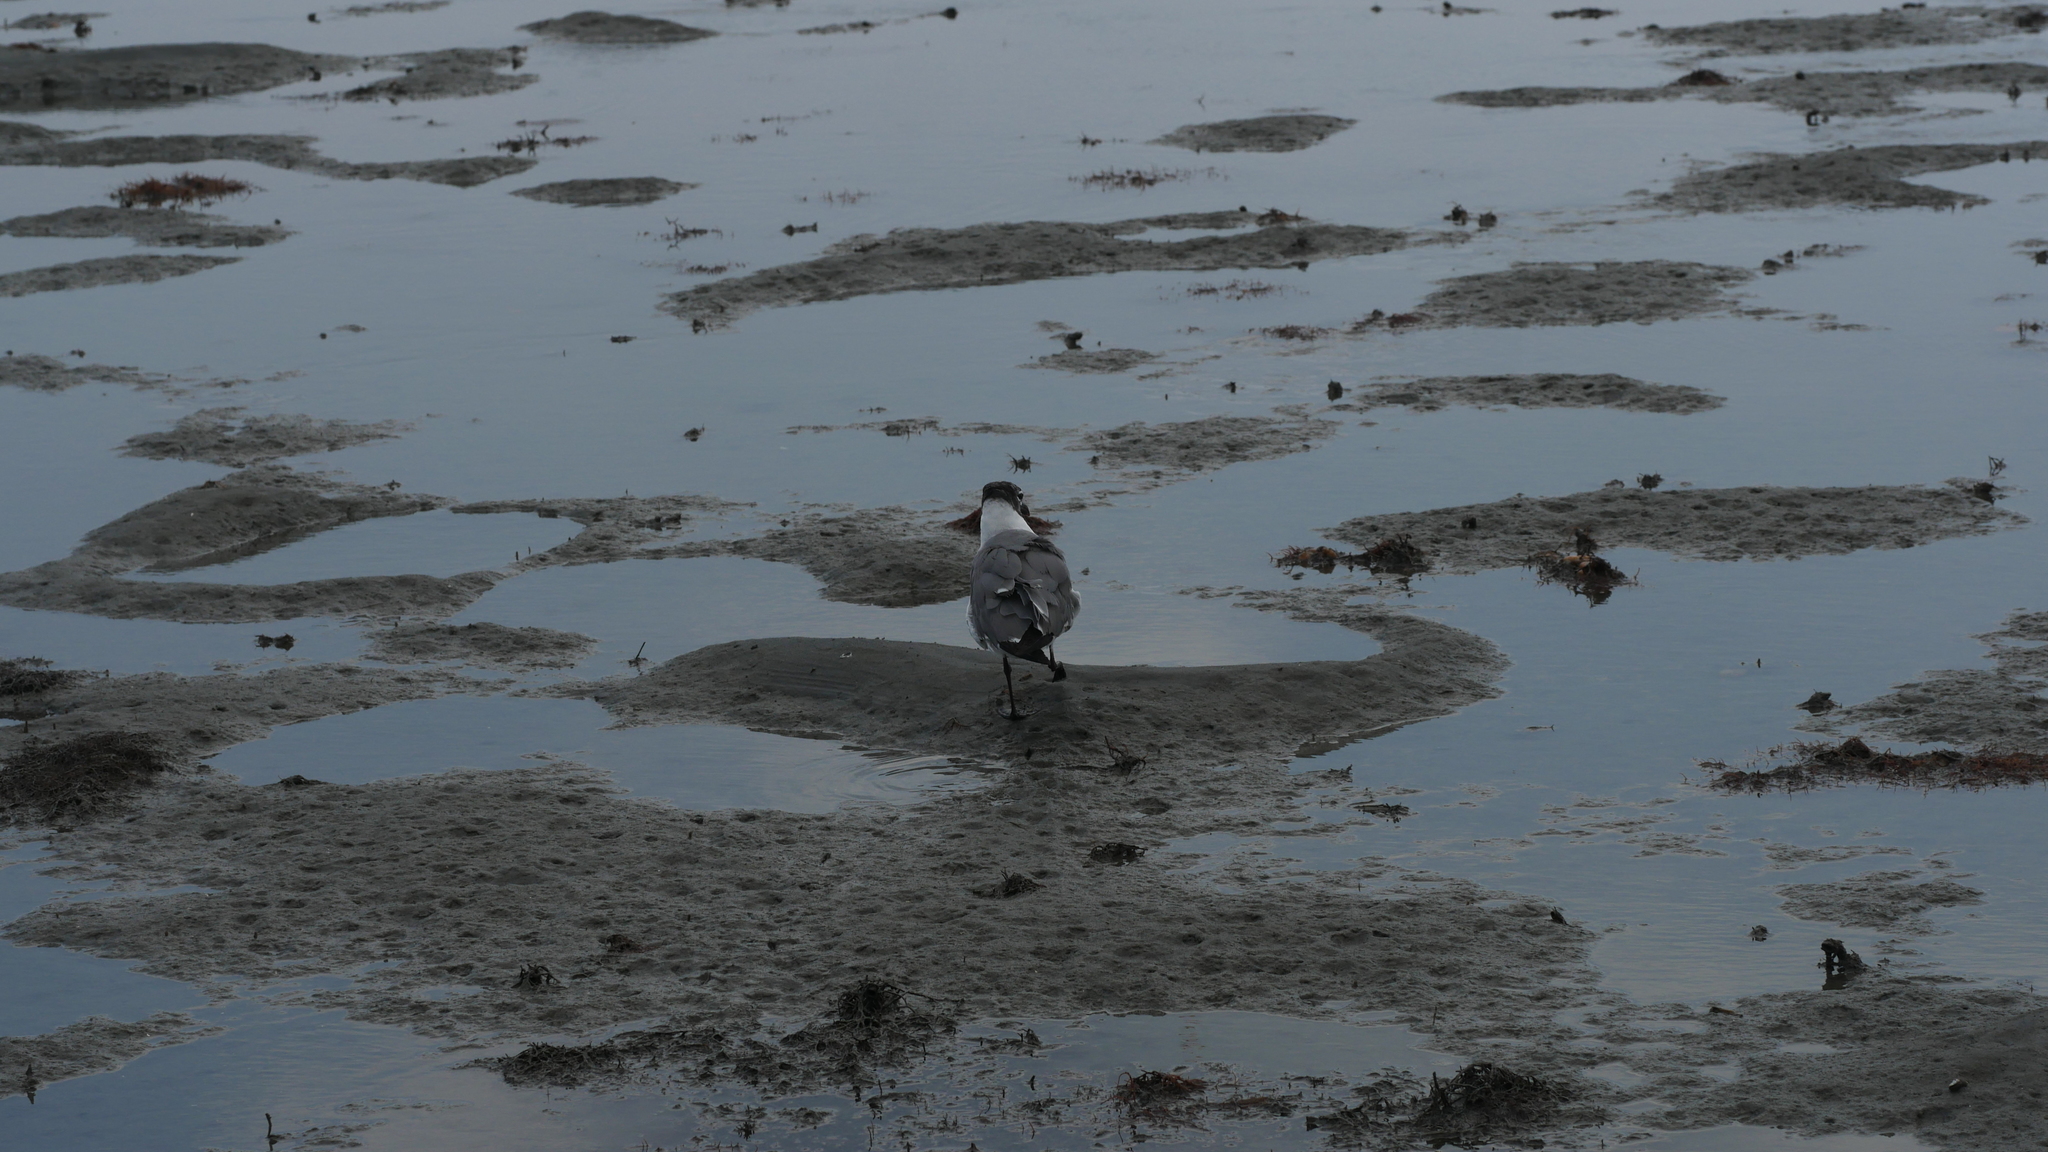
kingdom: Animalia
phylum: Chordata
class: Aves
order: Charadriiformes
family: Laridae
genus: Leucophaeus
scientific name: Leucophaeus atricilla
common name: Laughing gull
